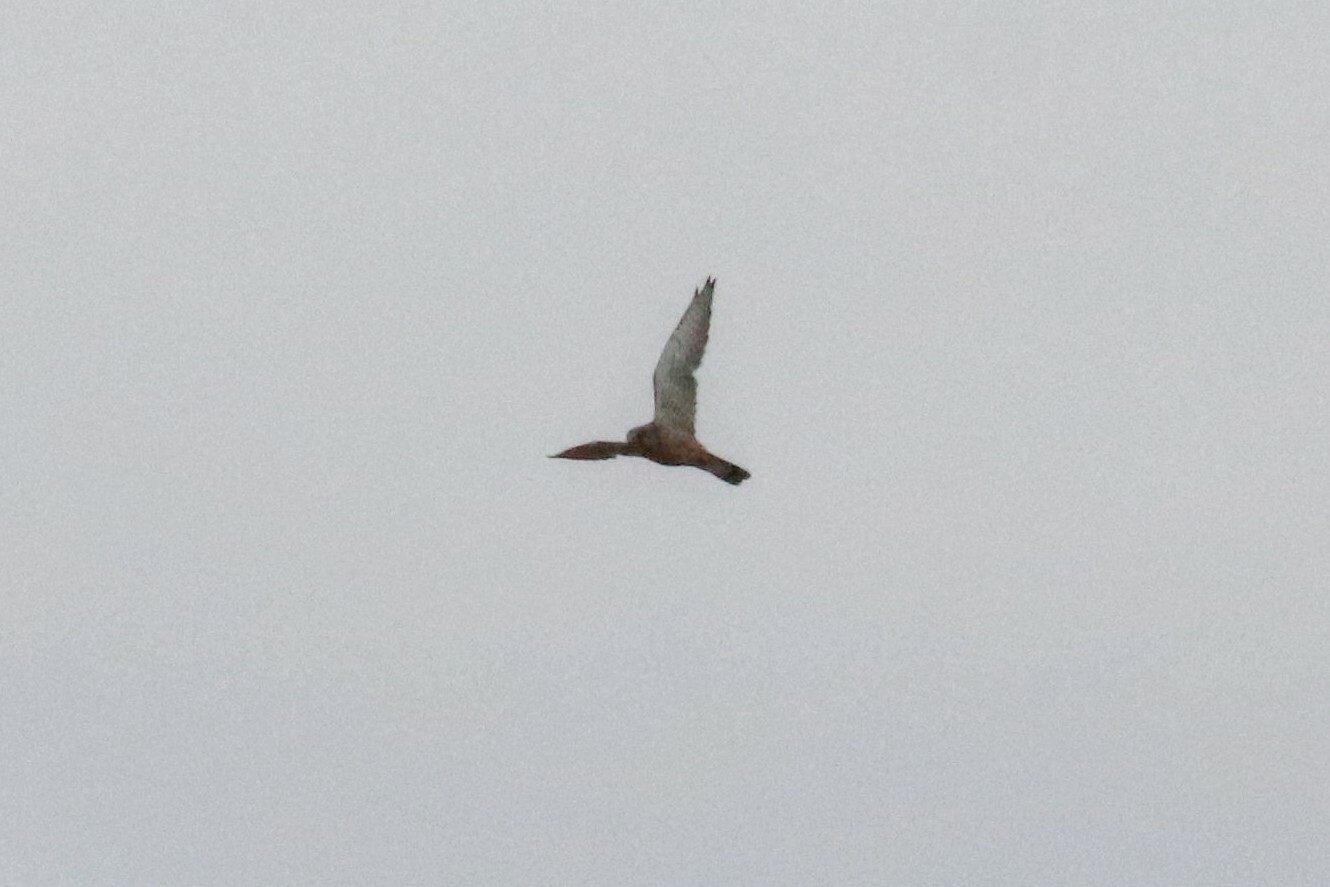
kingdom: Animalia
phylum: Chordata
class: Aves
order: Falconiformes
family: Falconidae
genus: Falco
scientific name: Falco tinnunculus
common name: Common kestrel
